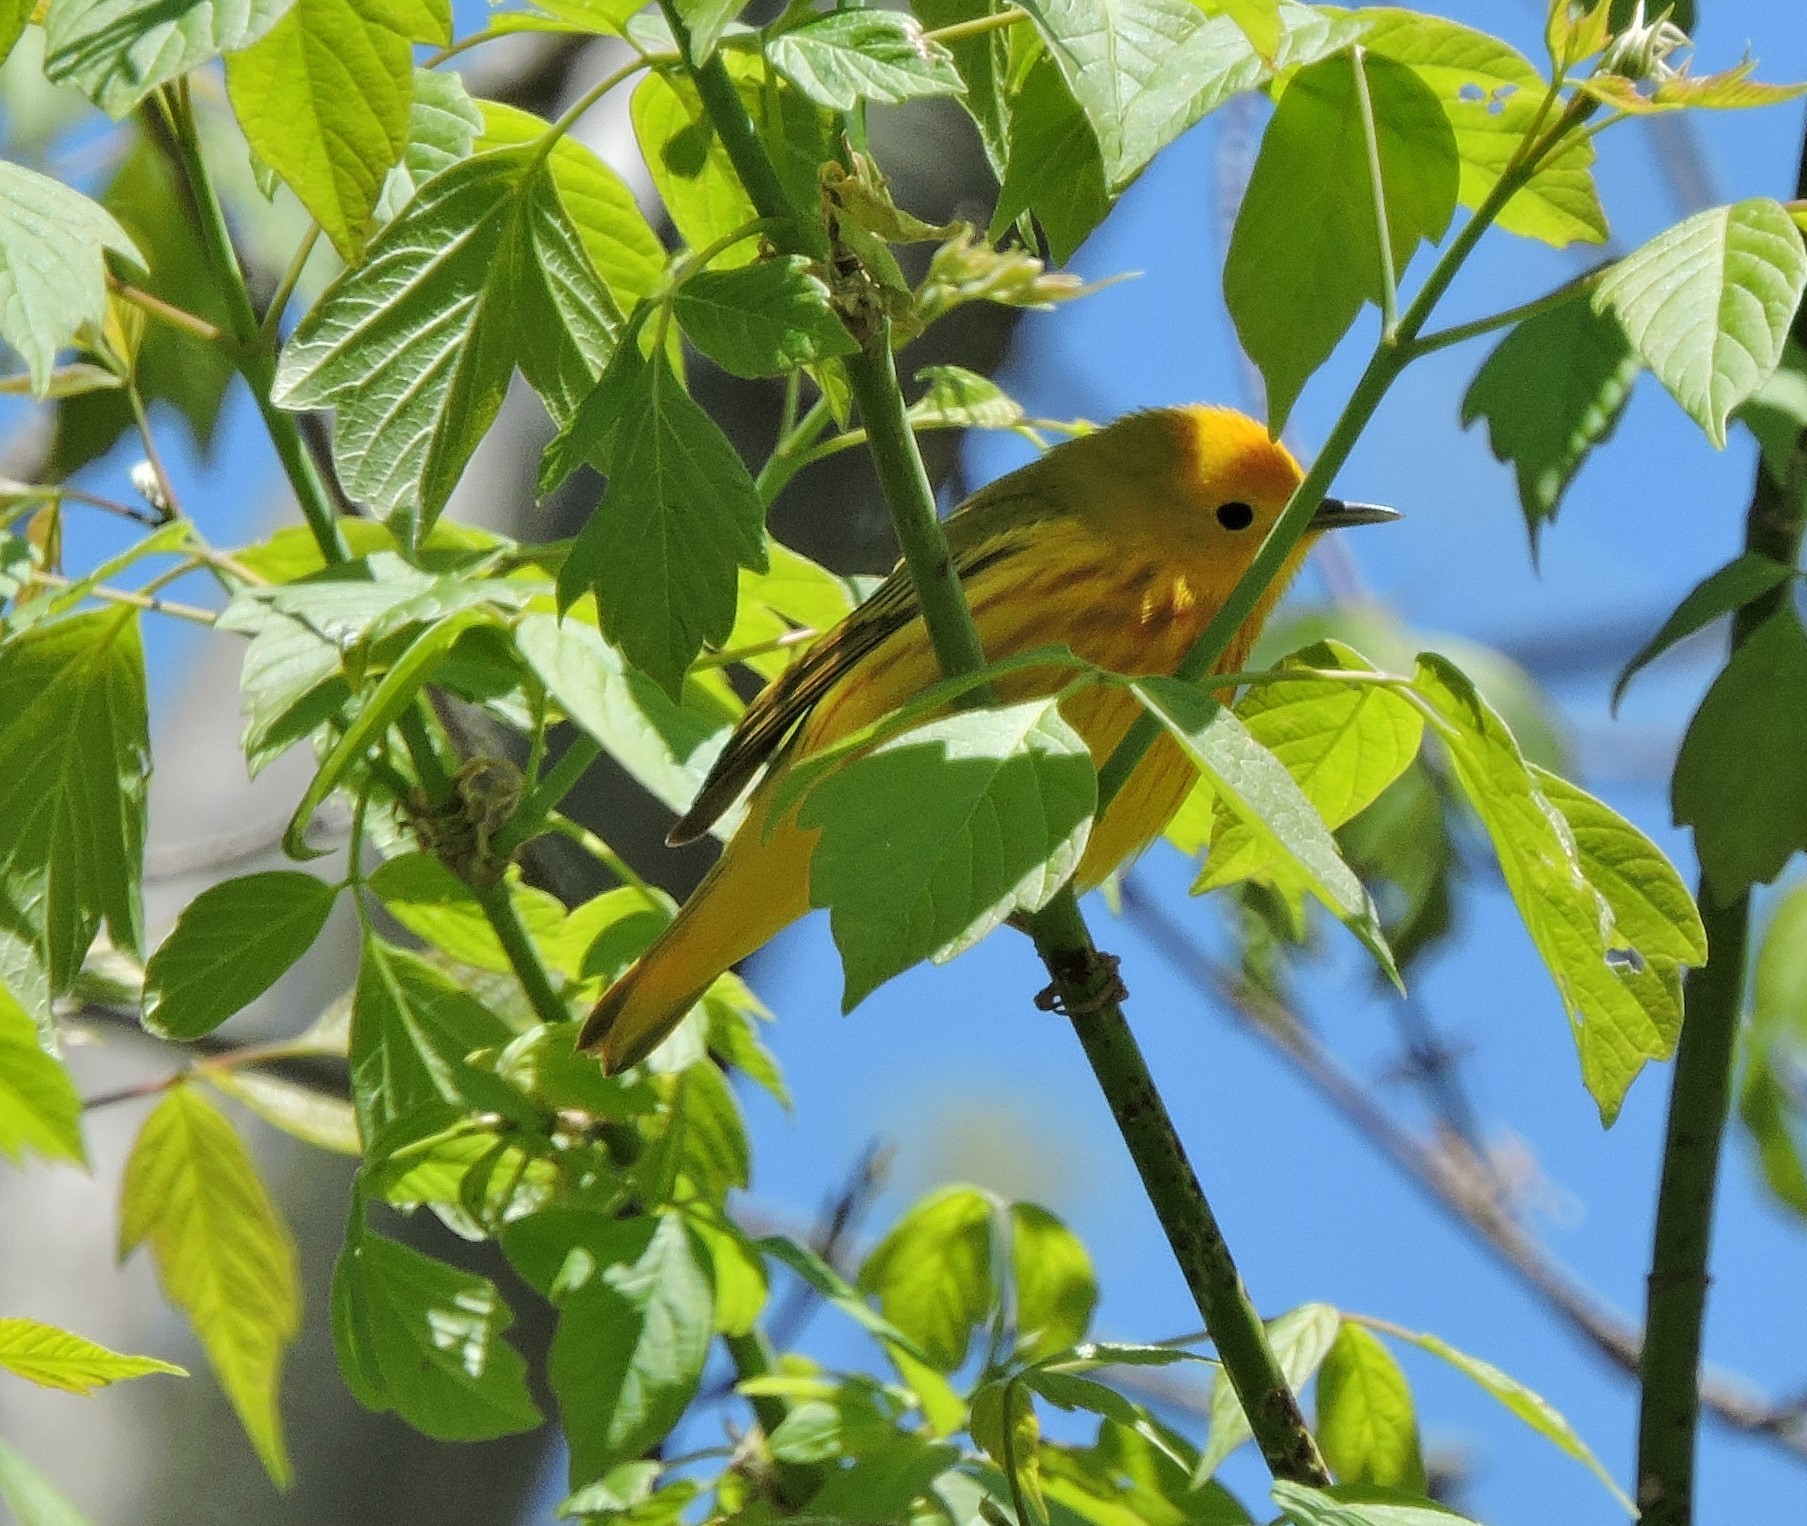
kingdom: Animalia
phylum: Chordata
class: Aves
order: Passeriformes
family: Parulidae
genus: Setophaga
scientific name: Setophaga petechia
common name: Yellow warbler
